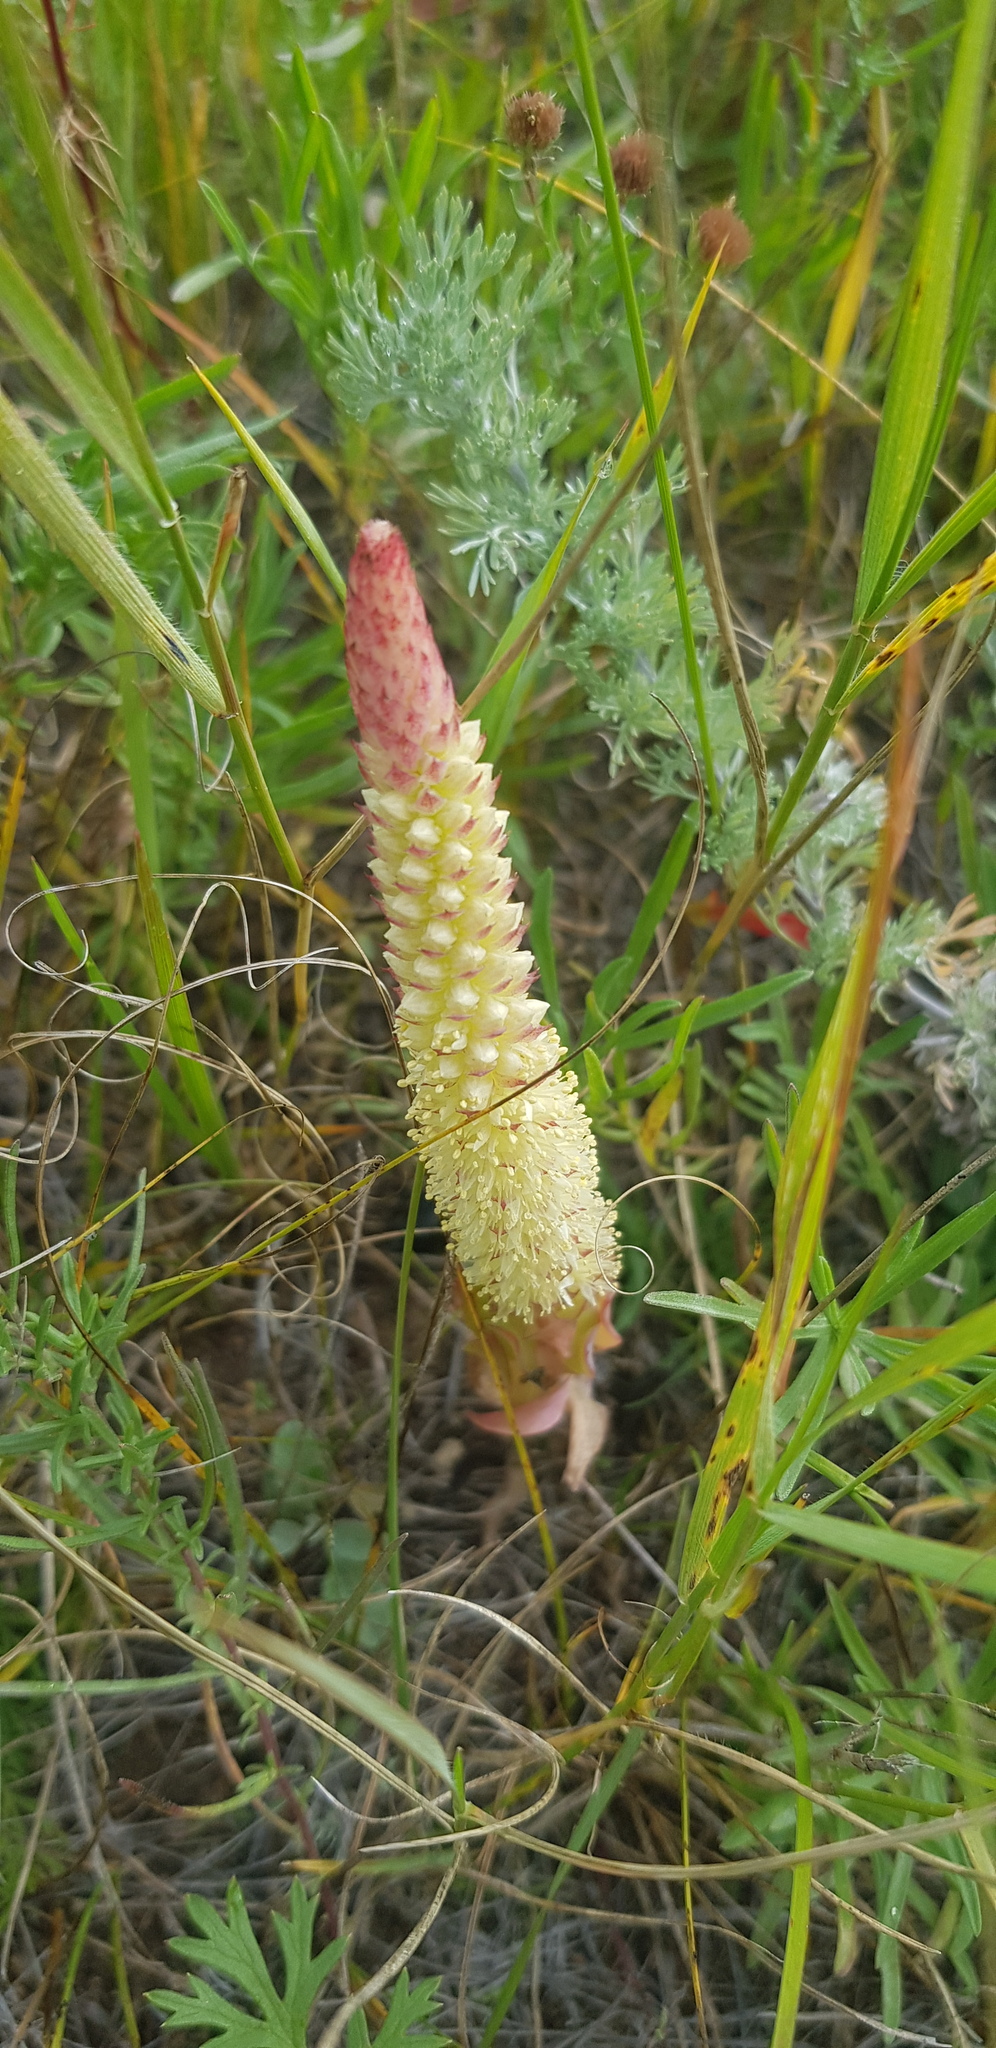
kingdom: Plantae
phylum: Tracheophyta
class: Magnoliopsida
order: Saxifragales
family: Crassulaceae
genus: Orostachys
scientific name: Orostachys malacophylla
